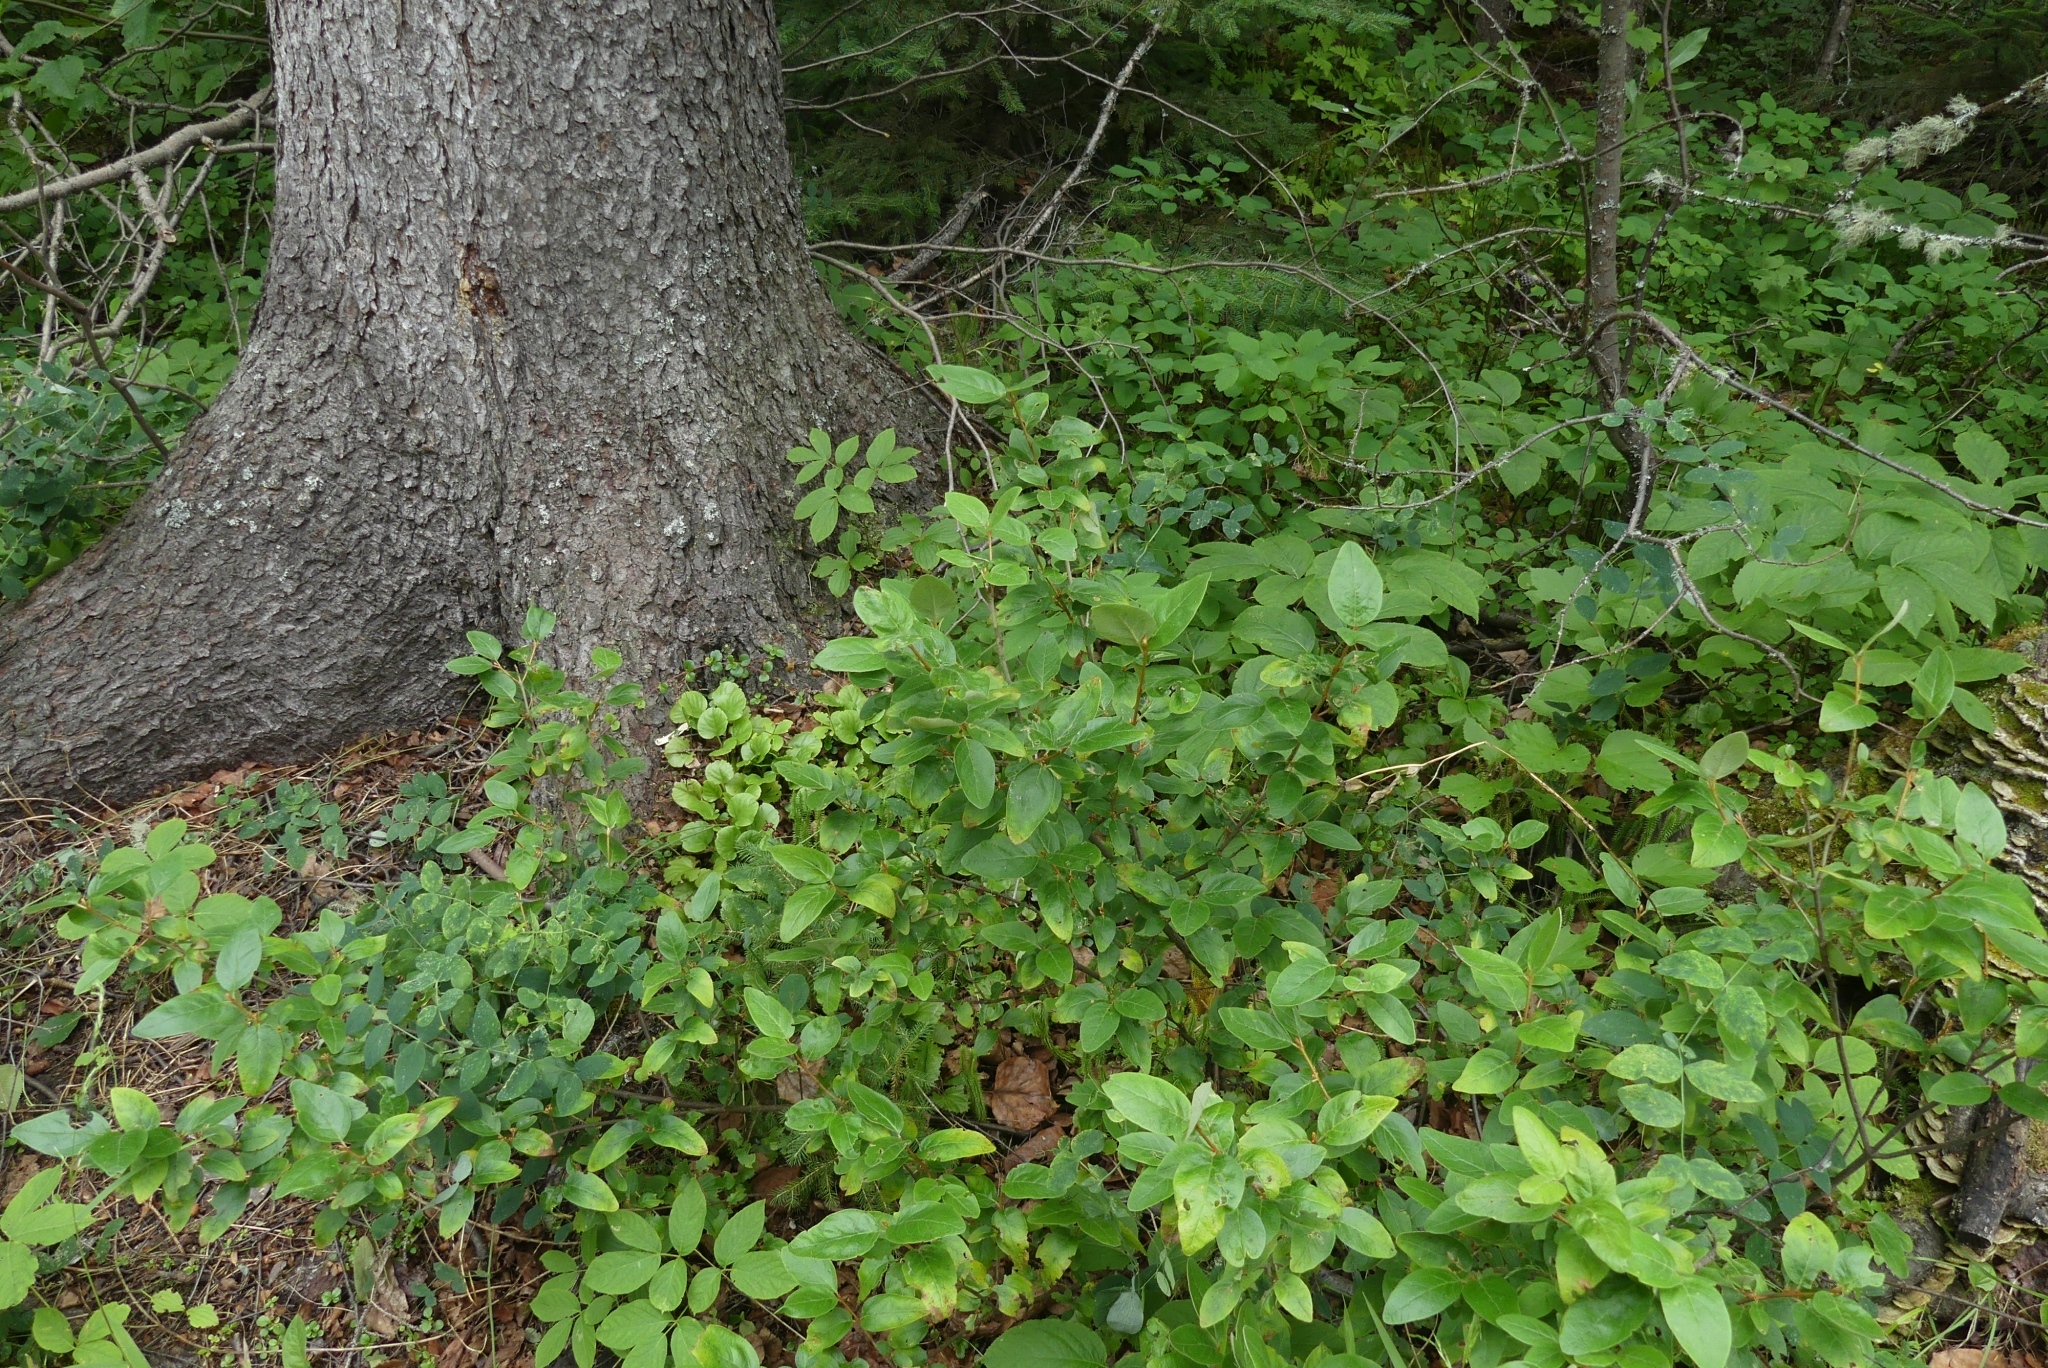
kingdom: Plantae
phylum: Tracheophyta
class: Magnoliopsida
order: Rosales
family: Elaeagnaceae
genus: Shepherdia
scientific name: Shepherdia canadensis
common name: Soapberry
